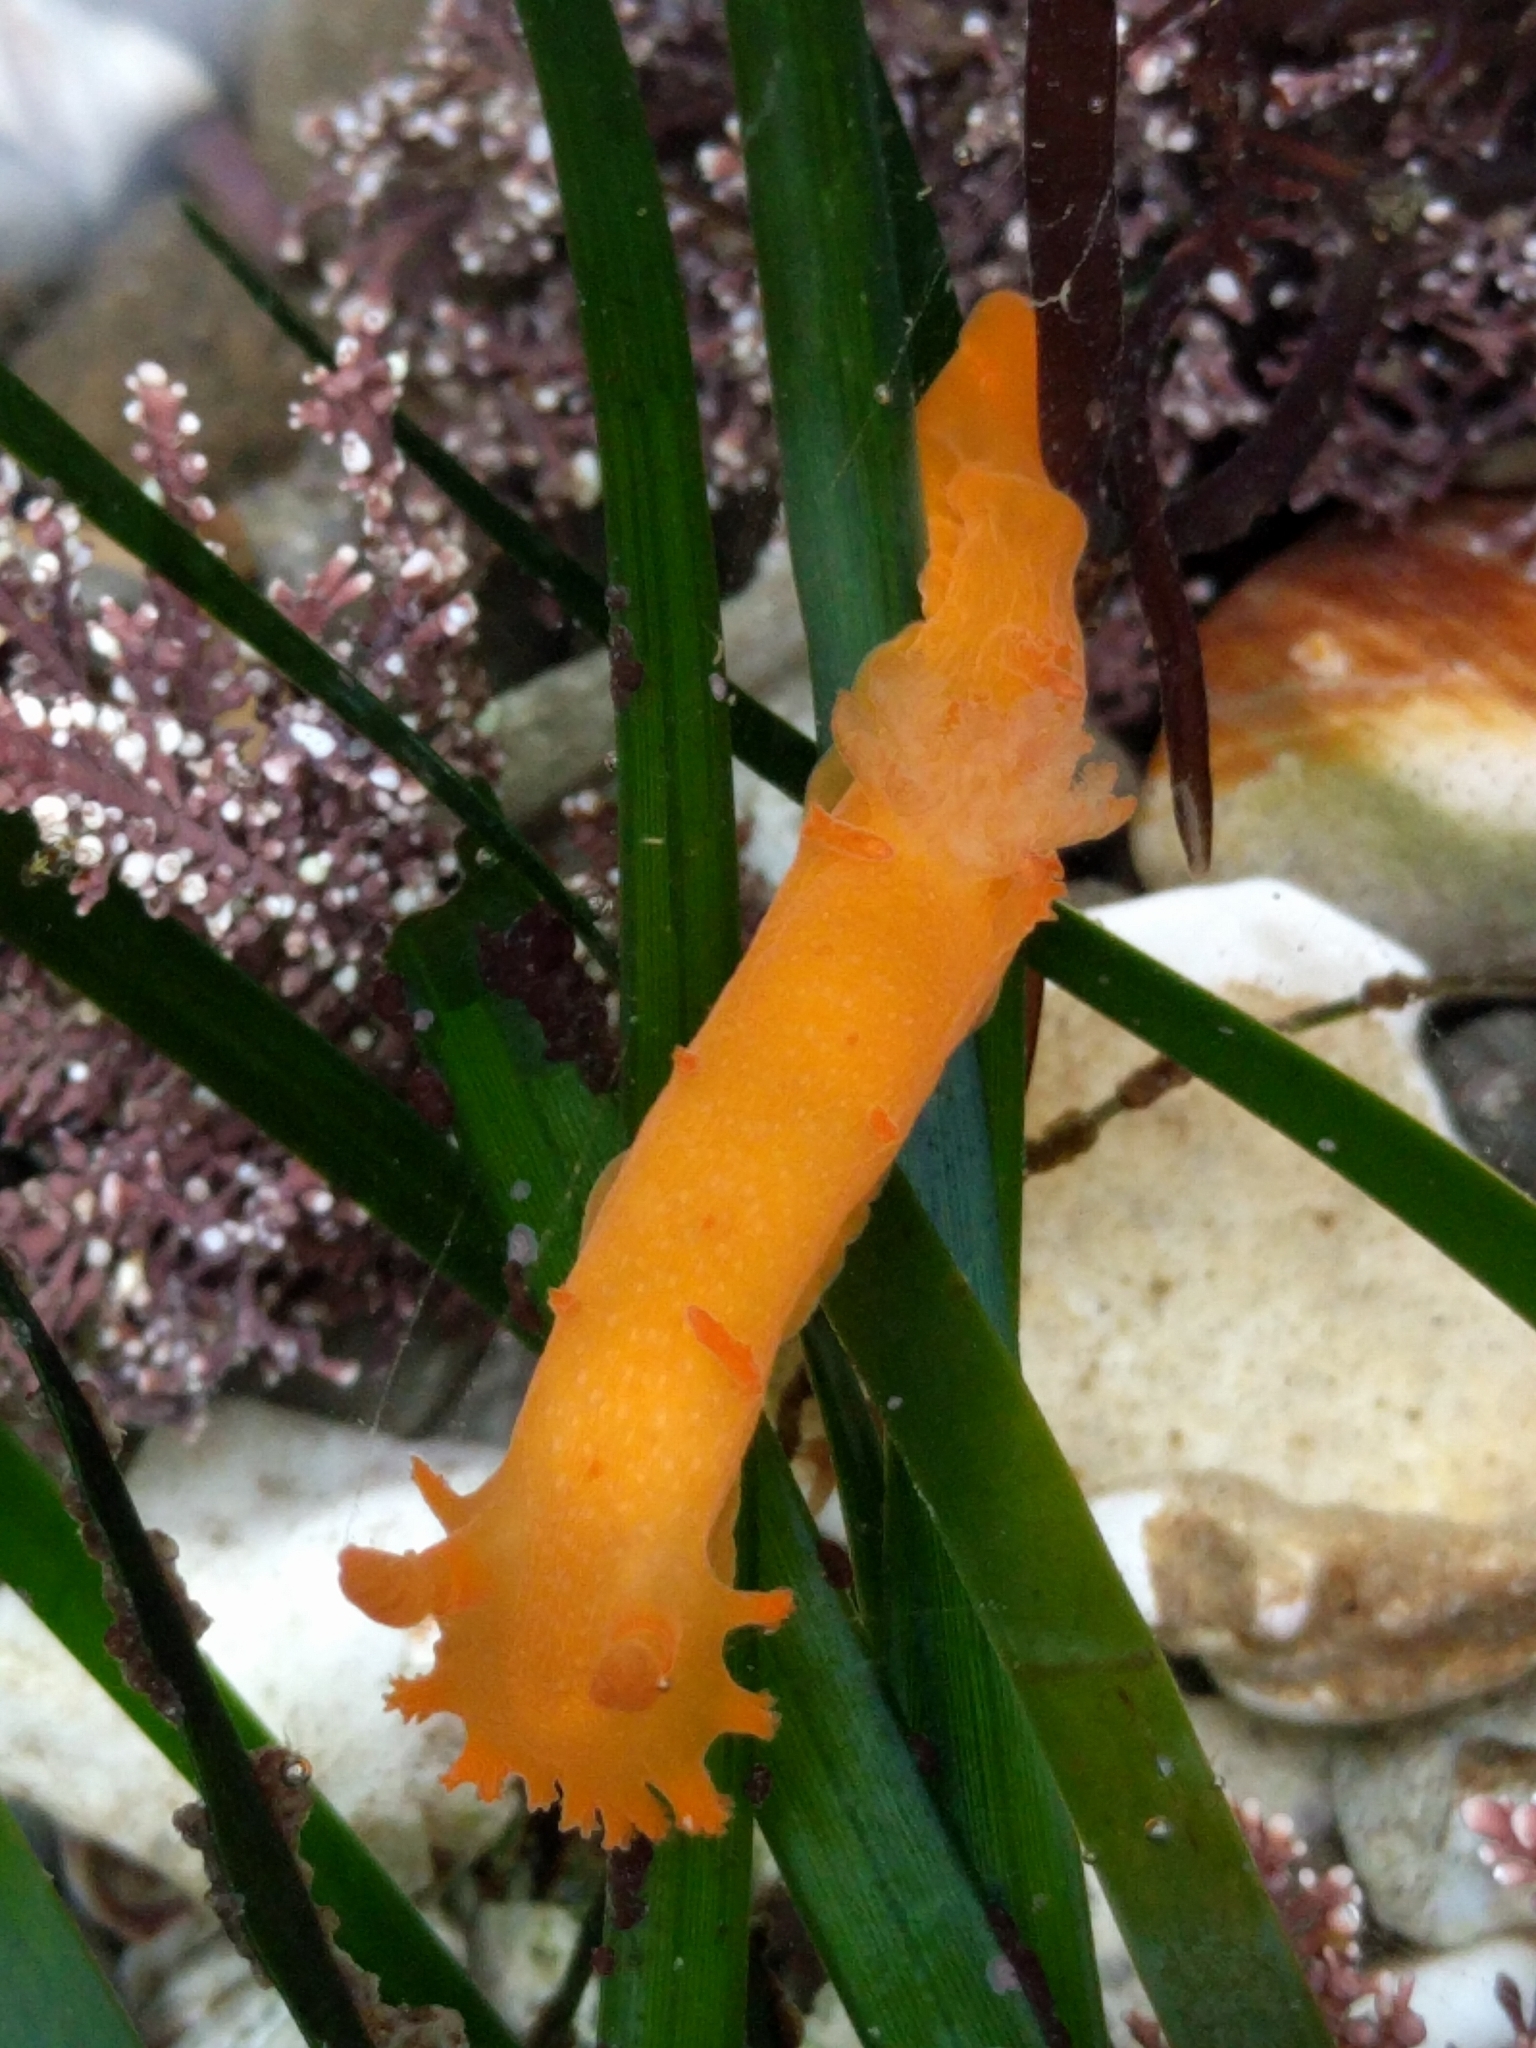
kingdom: Animalia
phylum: Mollusca
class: Gastropoda
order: Nudibranchia
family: Polyceridae
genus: Triopha
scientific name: Triopha maculata
